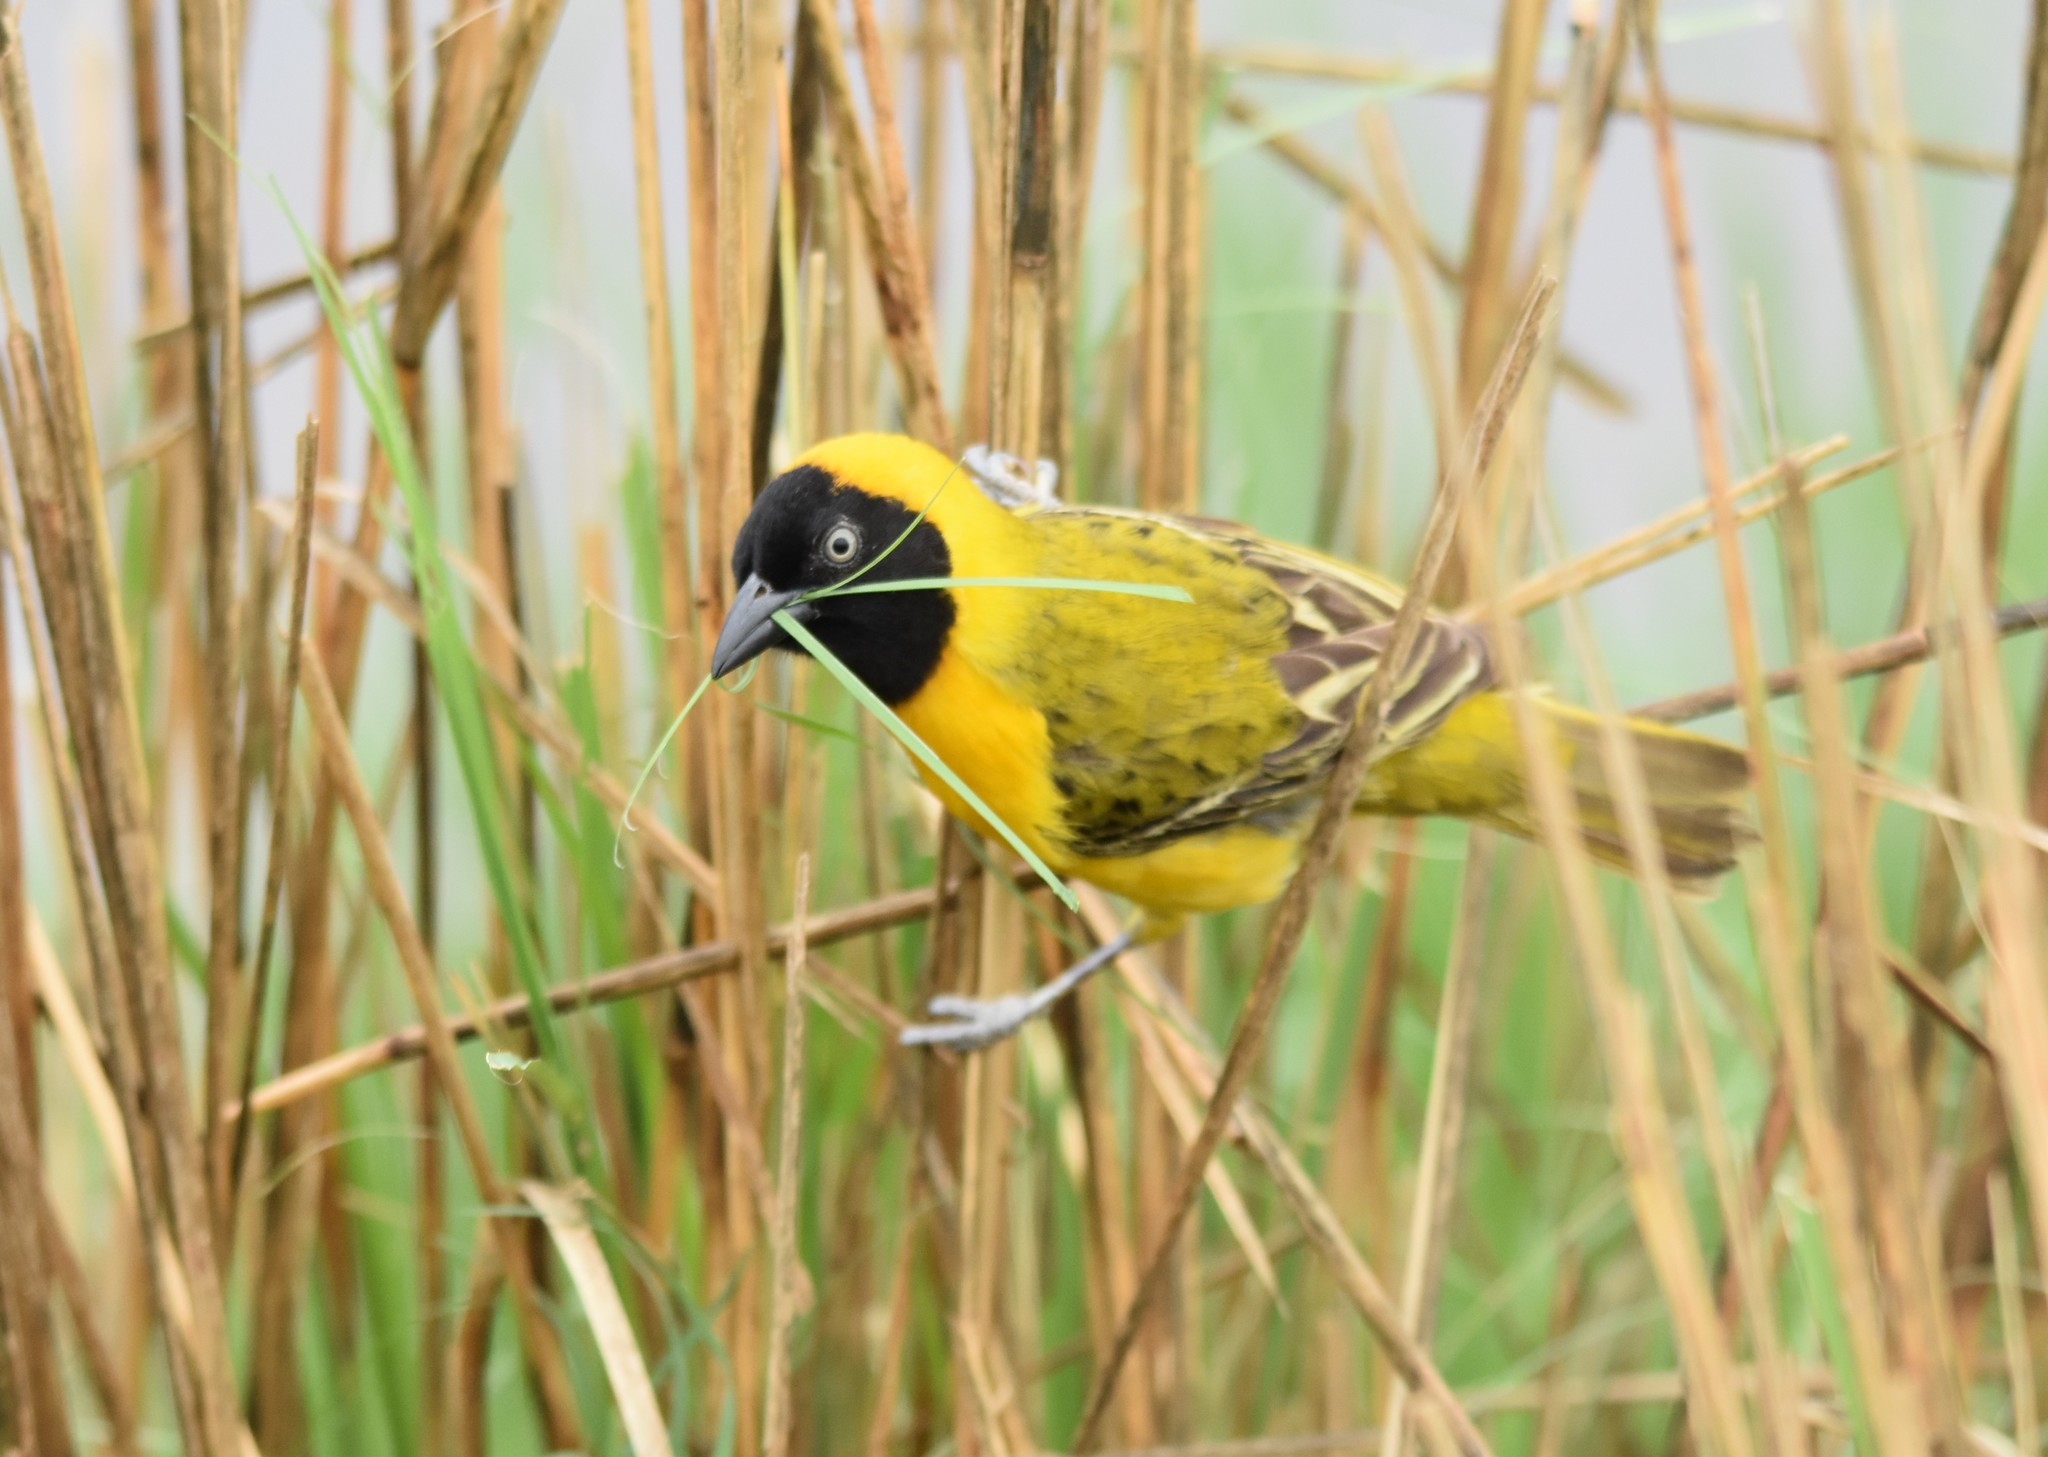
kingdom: Animalia
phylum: Chordata
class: Aves
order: Passeriformes
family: Ploceidae
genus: Ploceus
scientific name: Ploceus intermedius
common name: Lesser masked weaver
